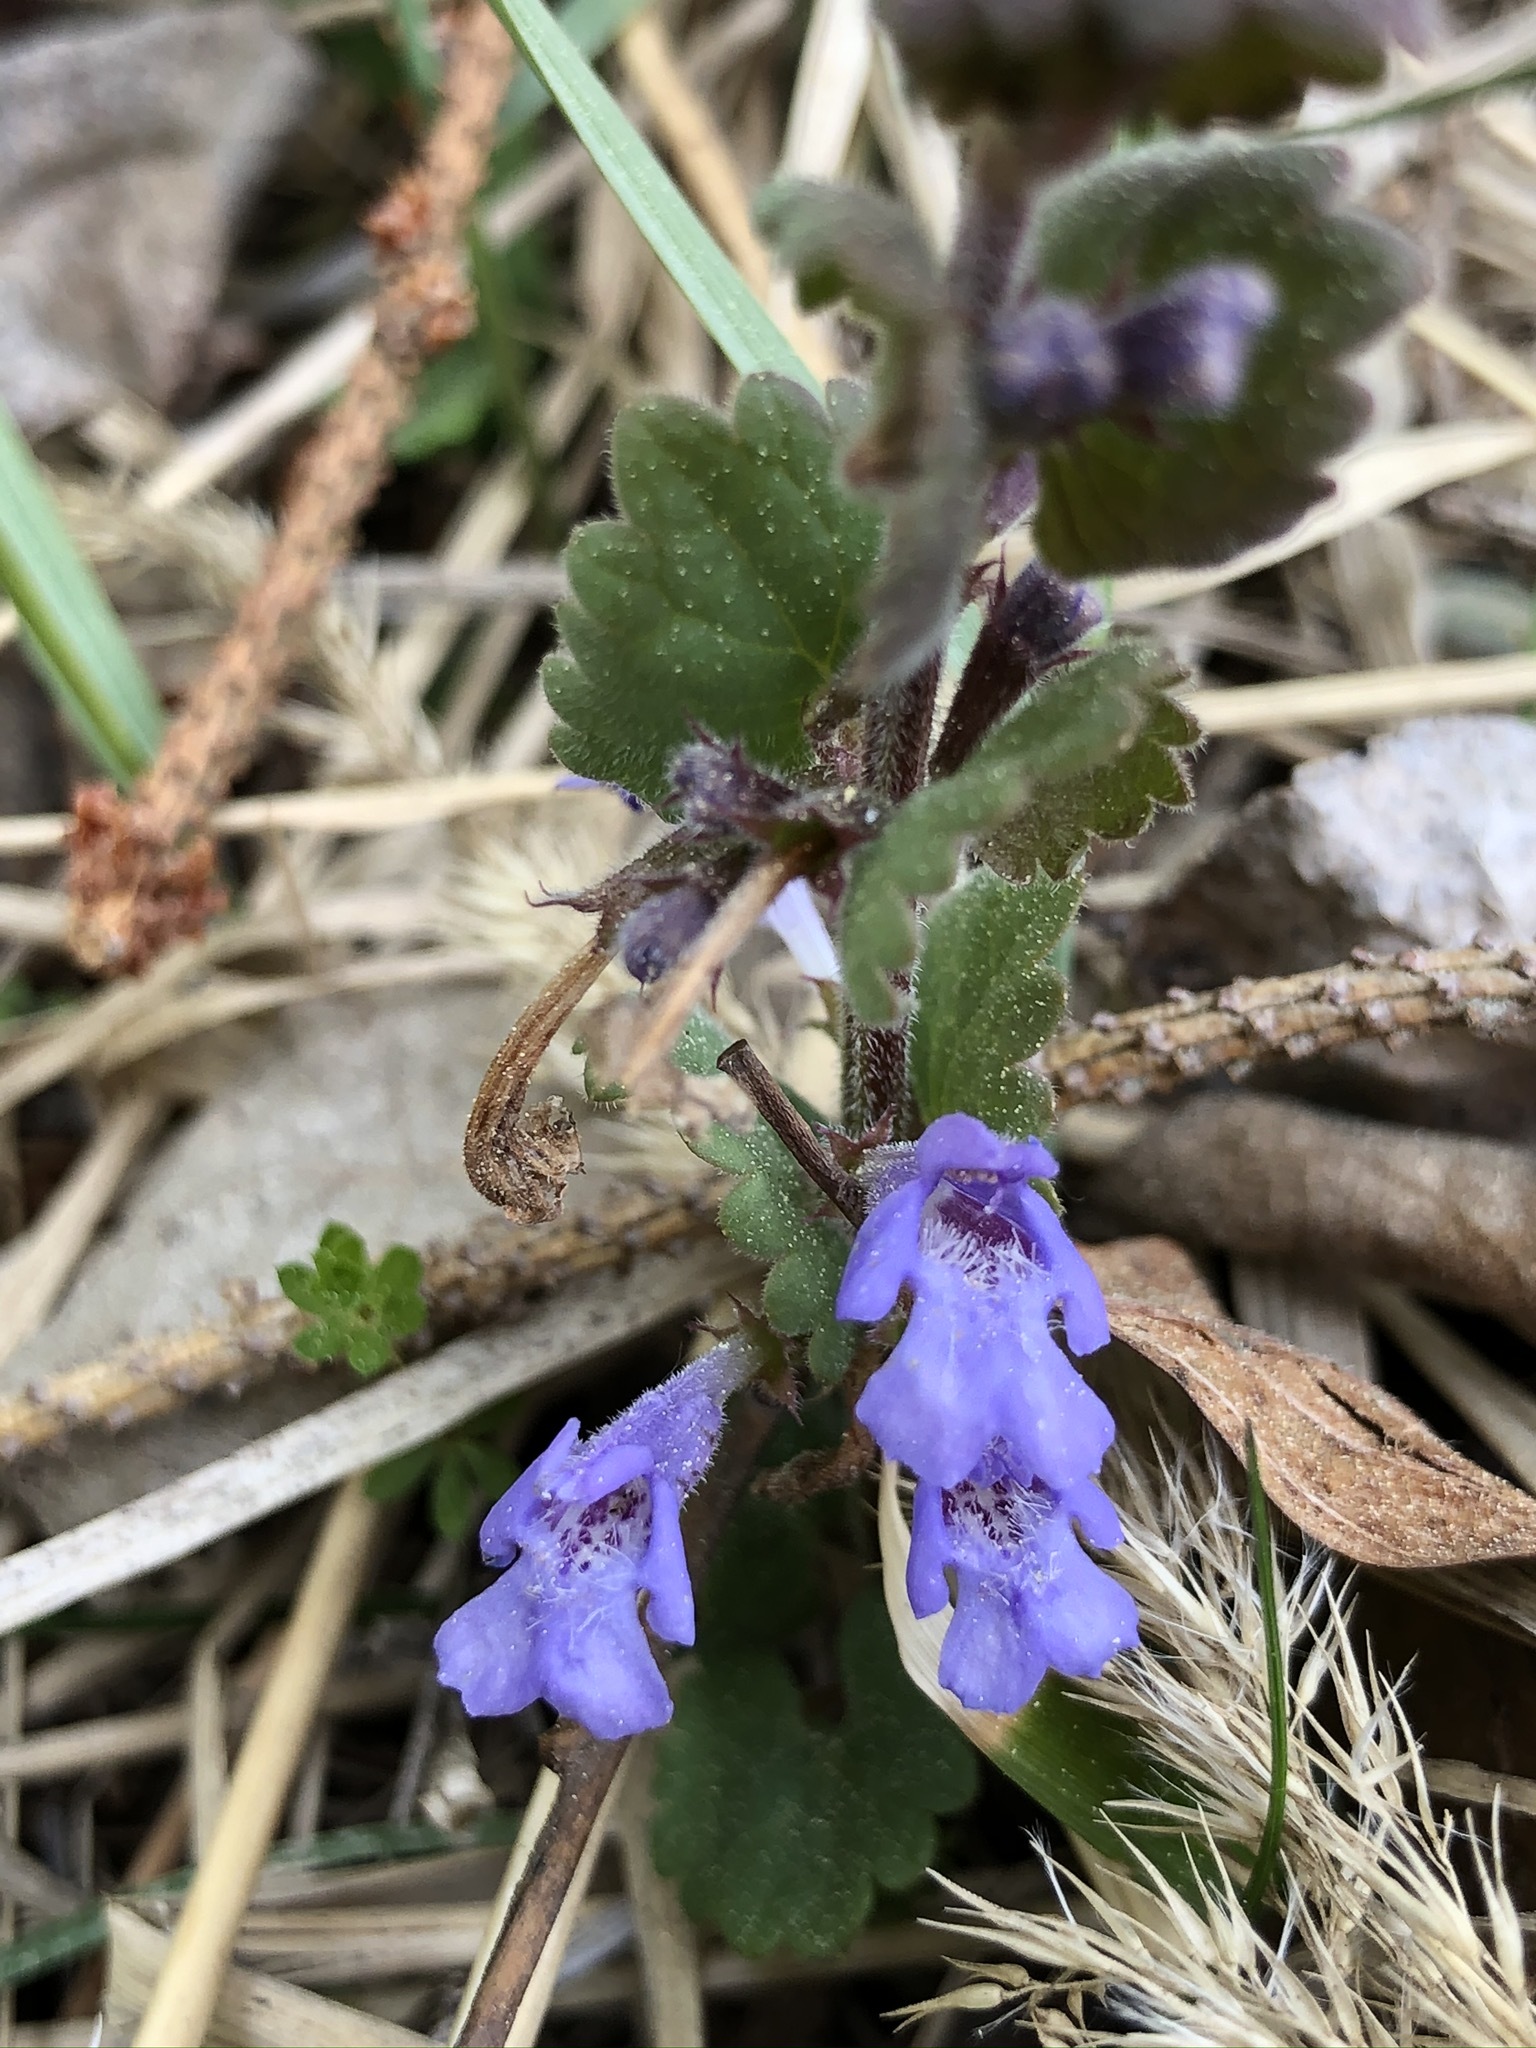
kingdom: Plantae
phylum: Tracheophyta
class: Magnoliopsida
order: Lamiales
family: Lamiaceae
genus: Glechoma
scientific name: Glechoma hederacea
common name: Ground ivy
